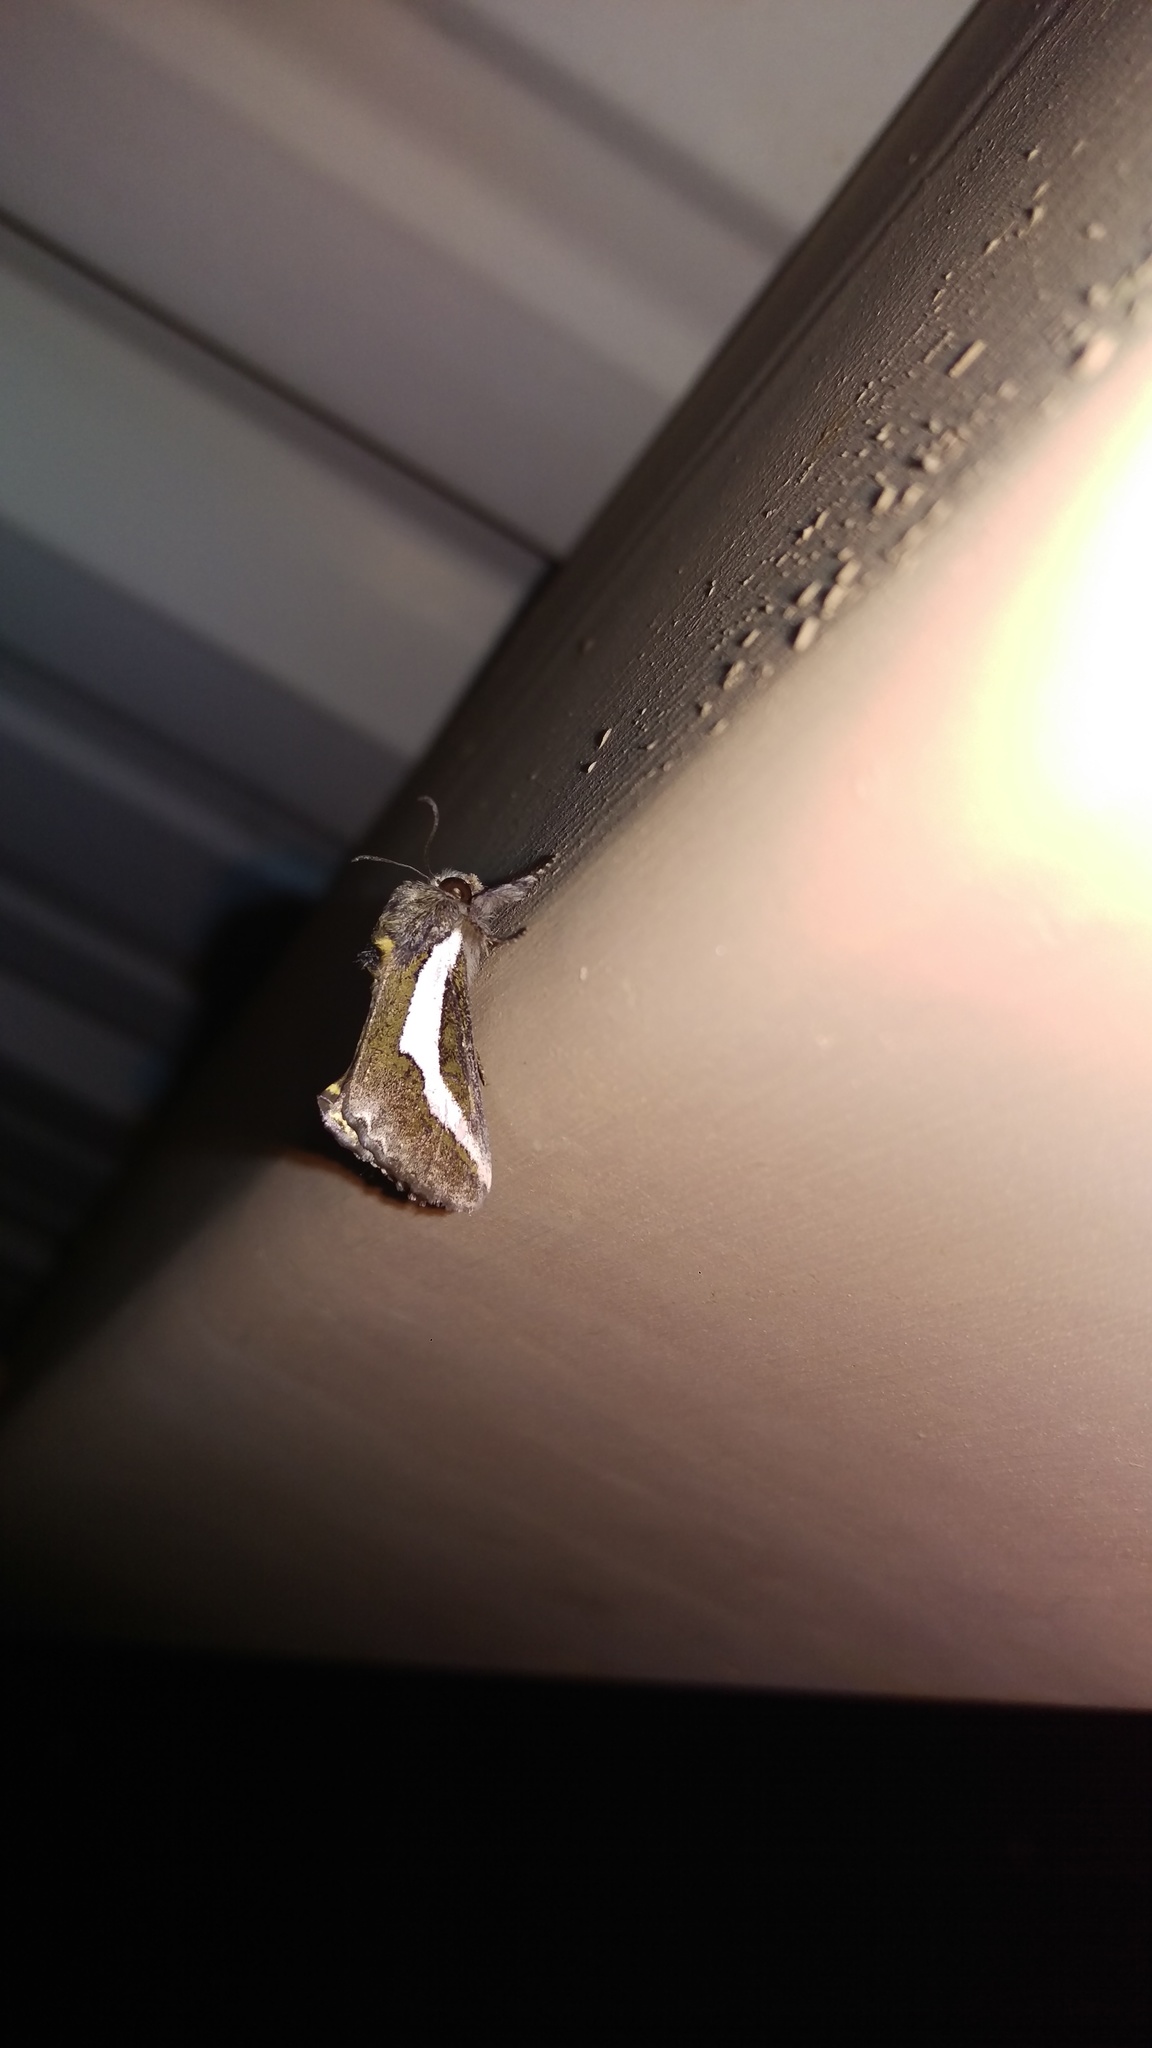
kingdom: Animalia
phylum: Arthropoda
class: Insecta
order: Lepidoptera
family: Noctuidae
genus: Euscirrhopterus
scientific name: Euscirrhopterus cosyra
